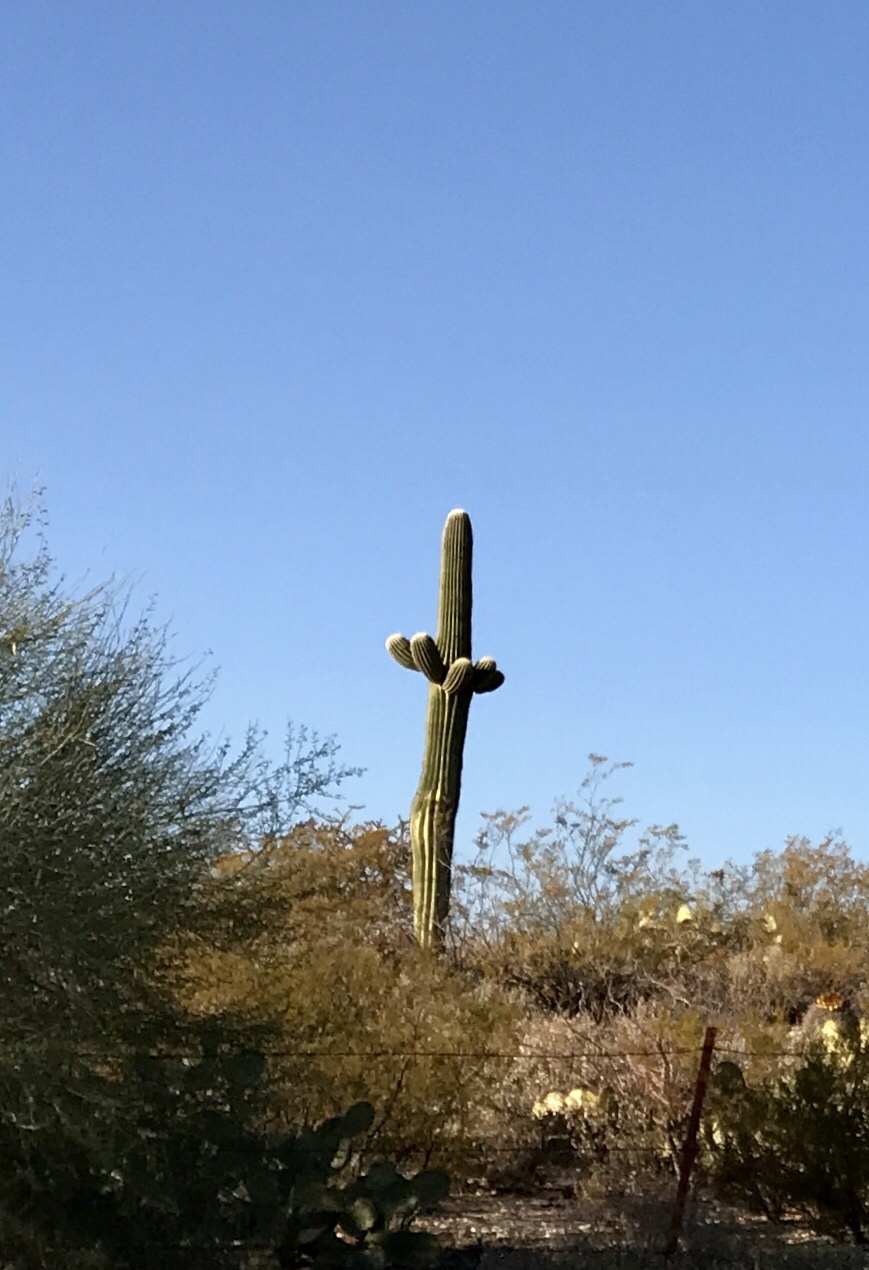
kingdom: Plantae
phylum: Tracheophyta
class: Magnoliopsida
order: Caryophyllales
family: Cactaceae
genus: Carnegiea
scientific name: Carnegiea gigantea
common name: Saguaro
